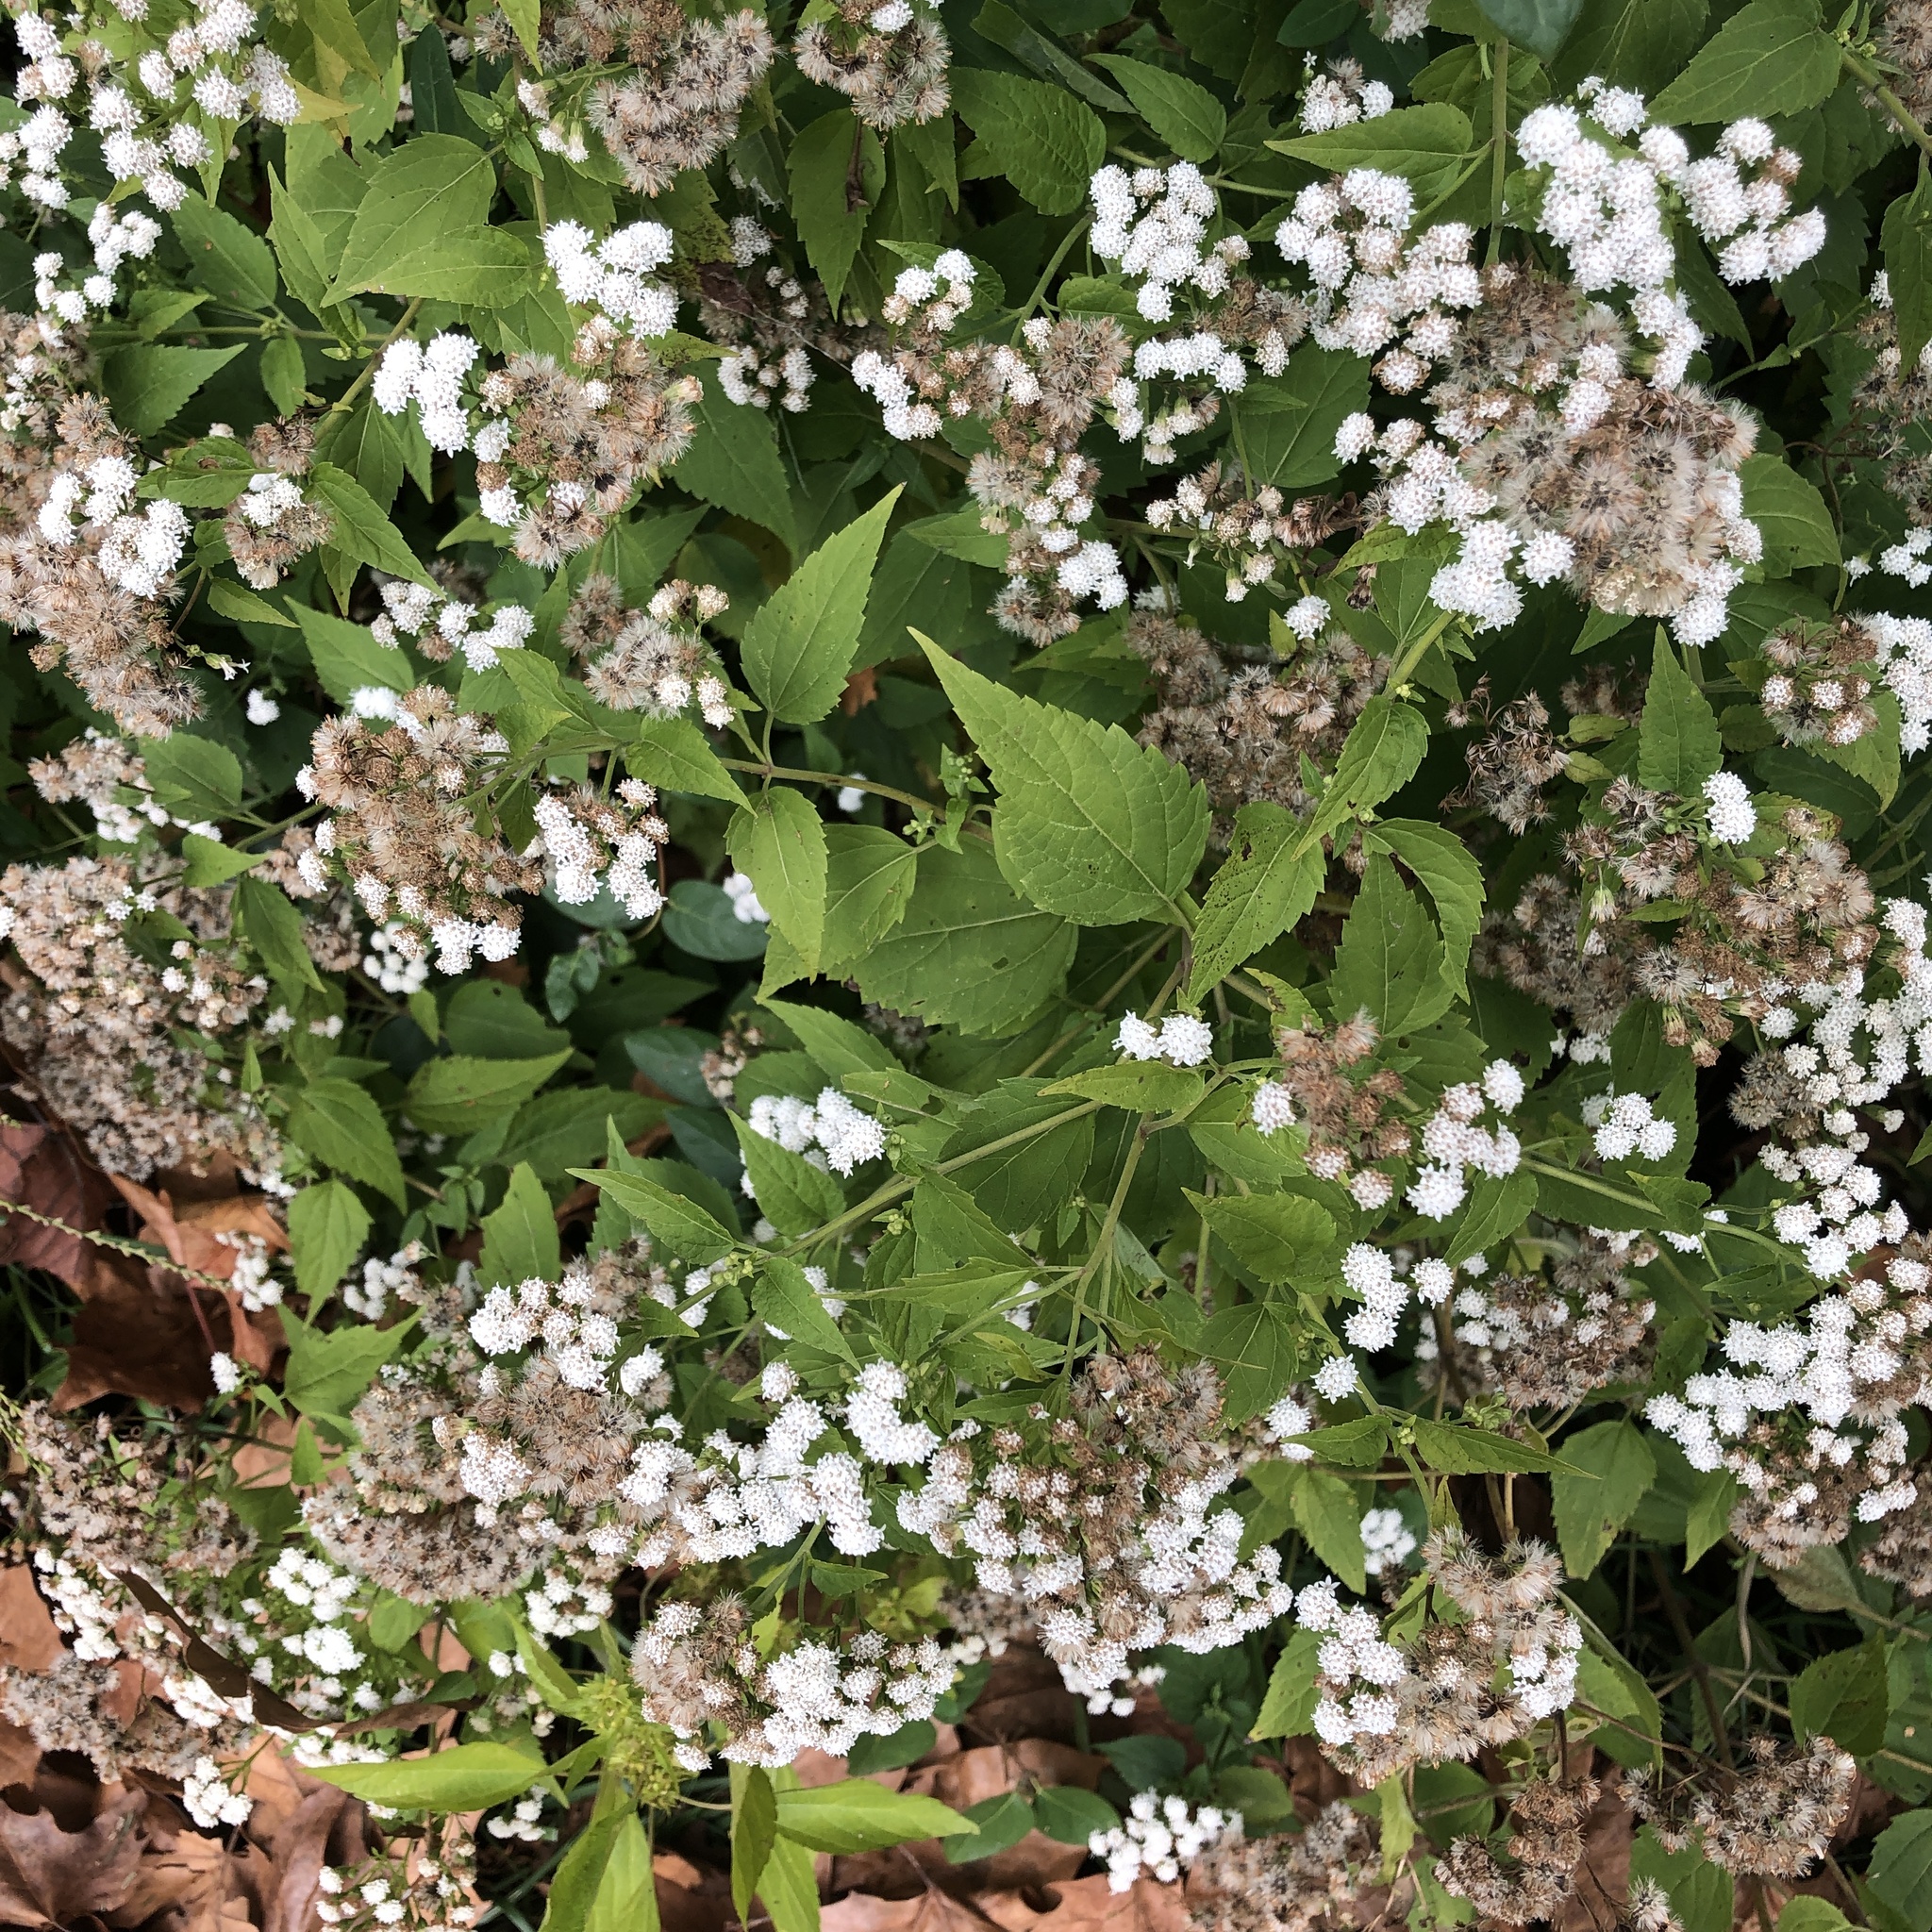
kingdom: Plantae
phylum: Tracheophyta
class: Magnoliopsida
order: Asterales
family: Asteraceae
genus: Ageratina
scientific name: Ageratina altissima
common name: White snakeroot
